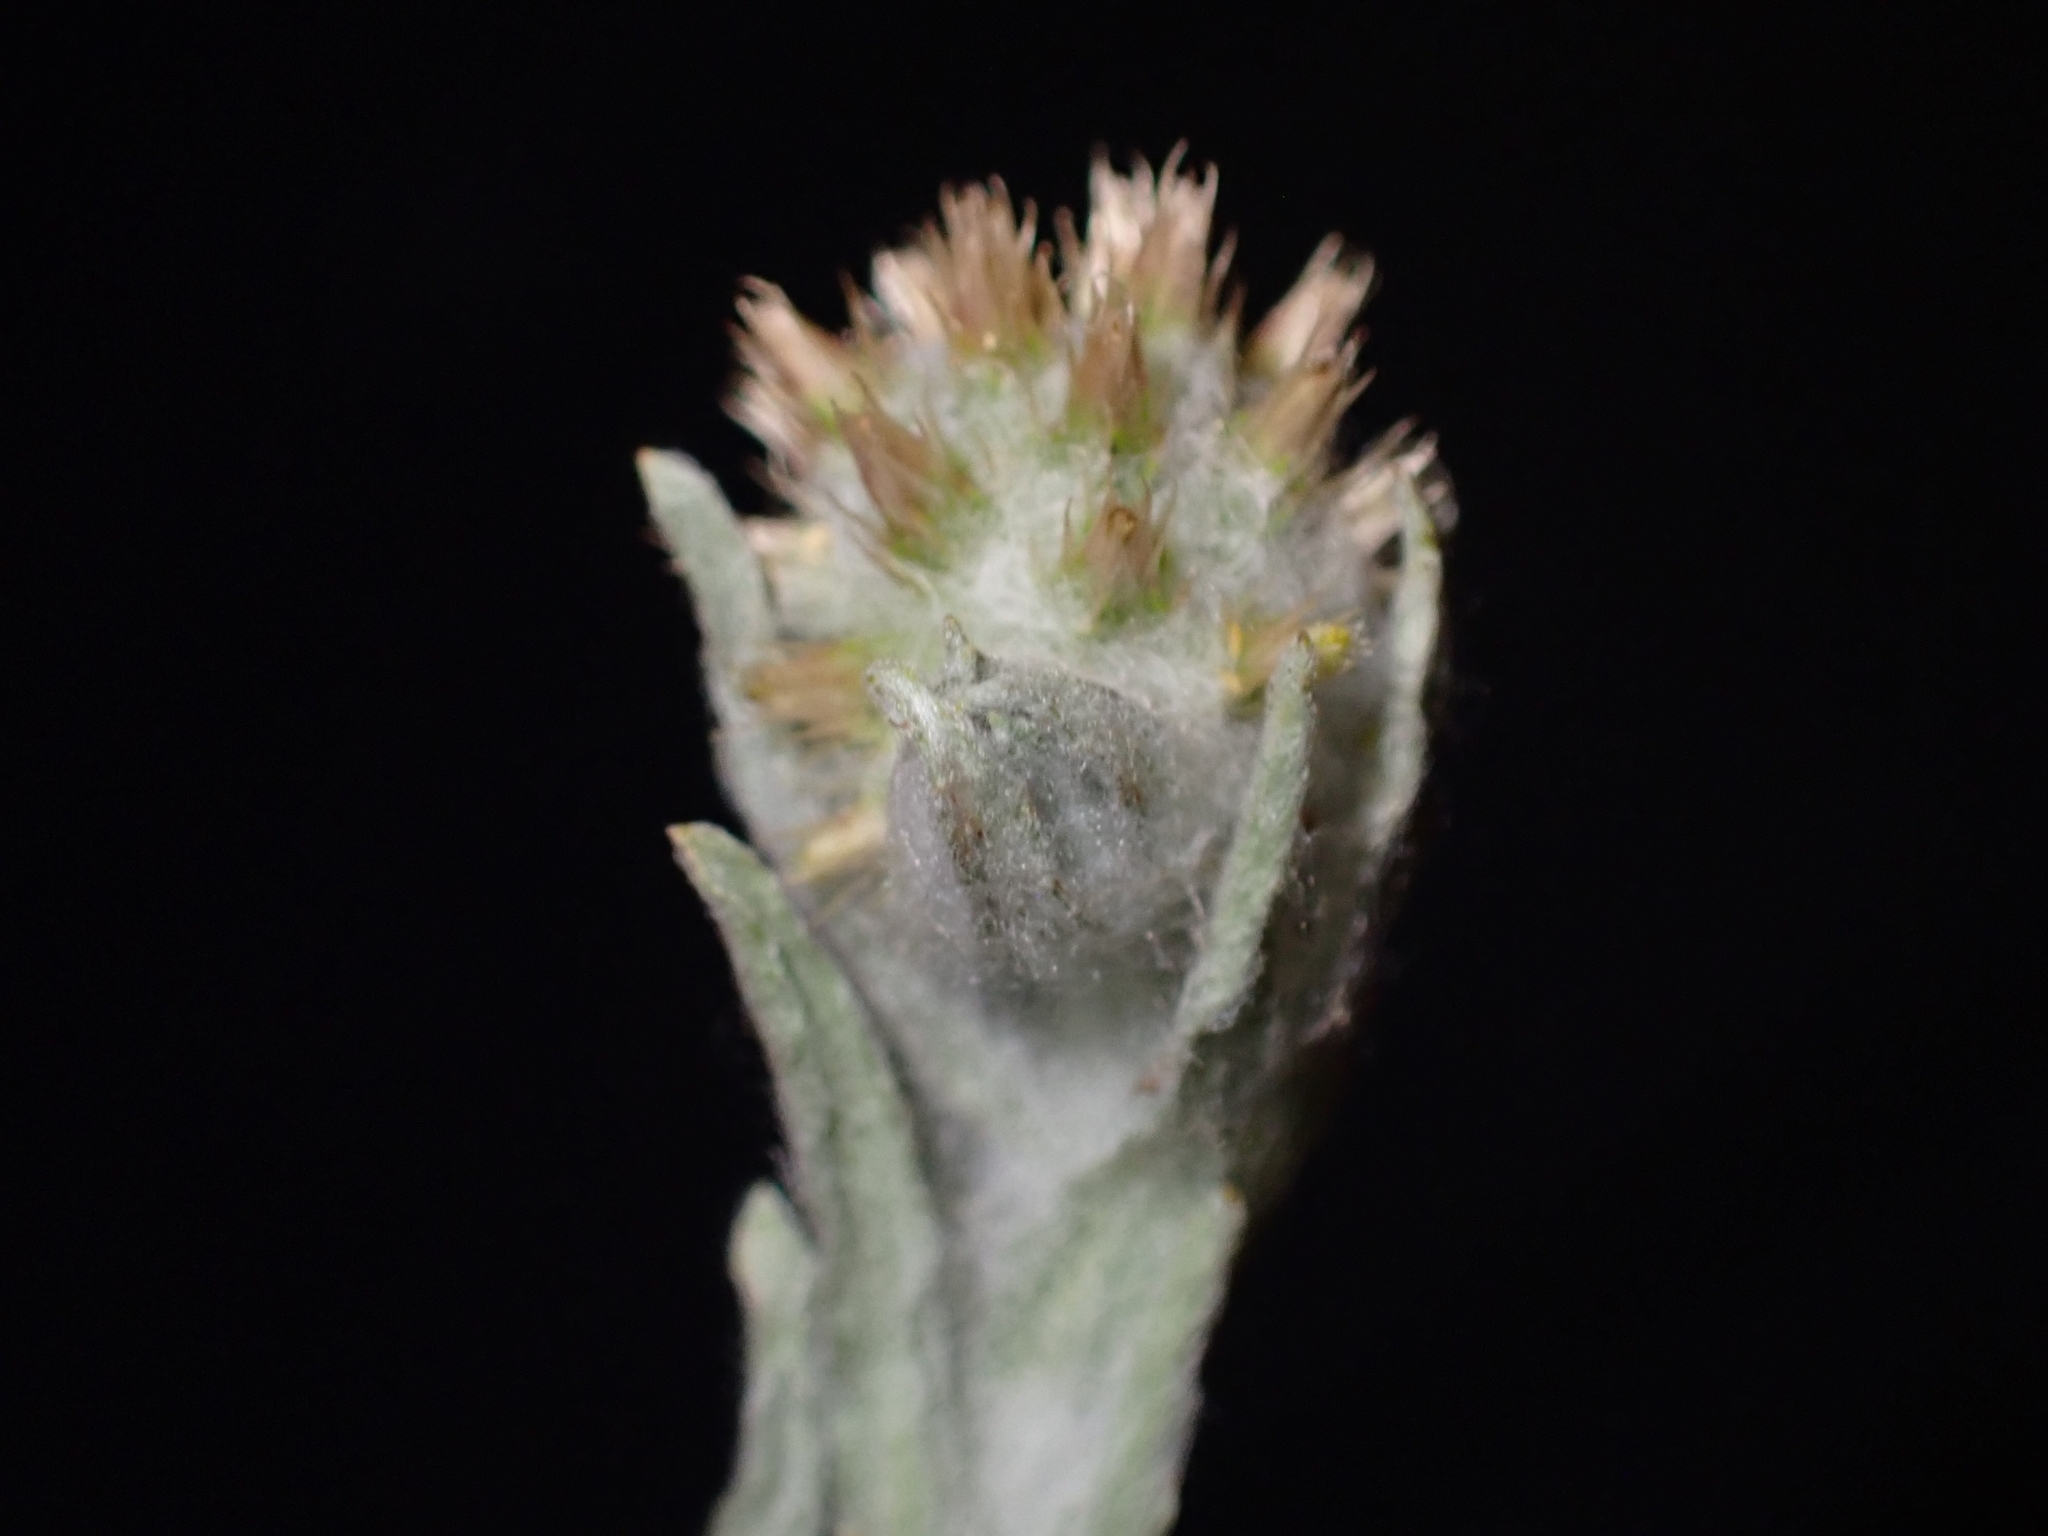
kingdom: Plantae
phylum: Tracheophyta
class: Magnoliopsida
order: Asterales
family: Asteraceae
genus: Filago
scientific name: Filago germanica
